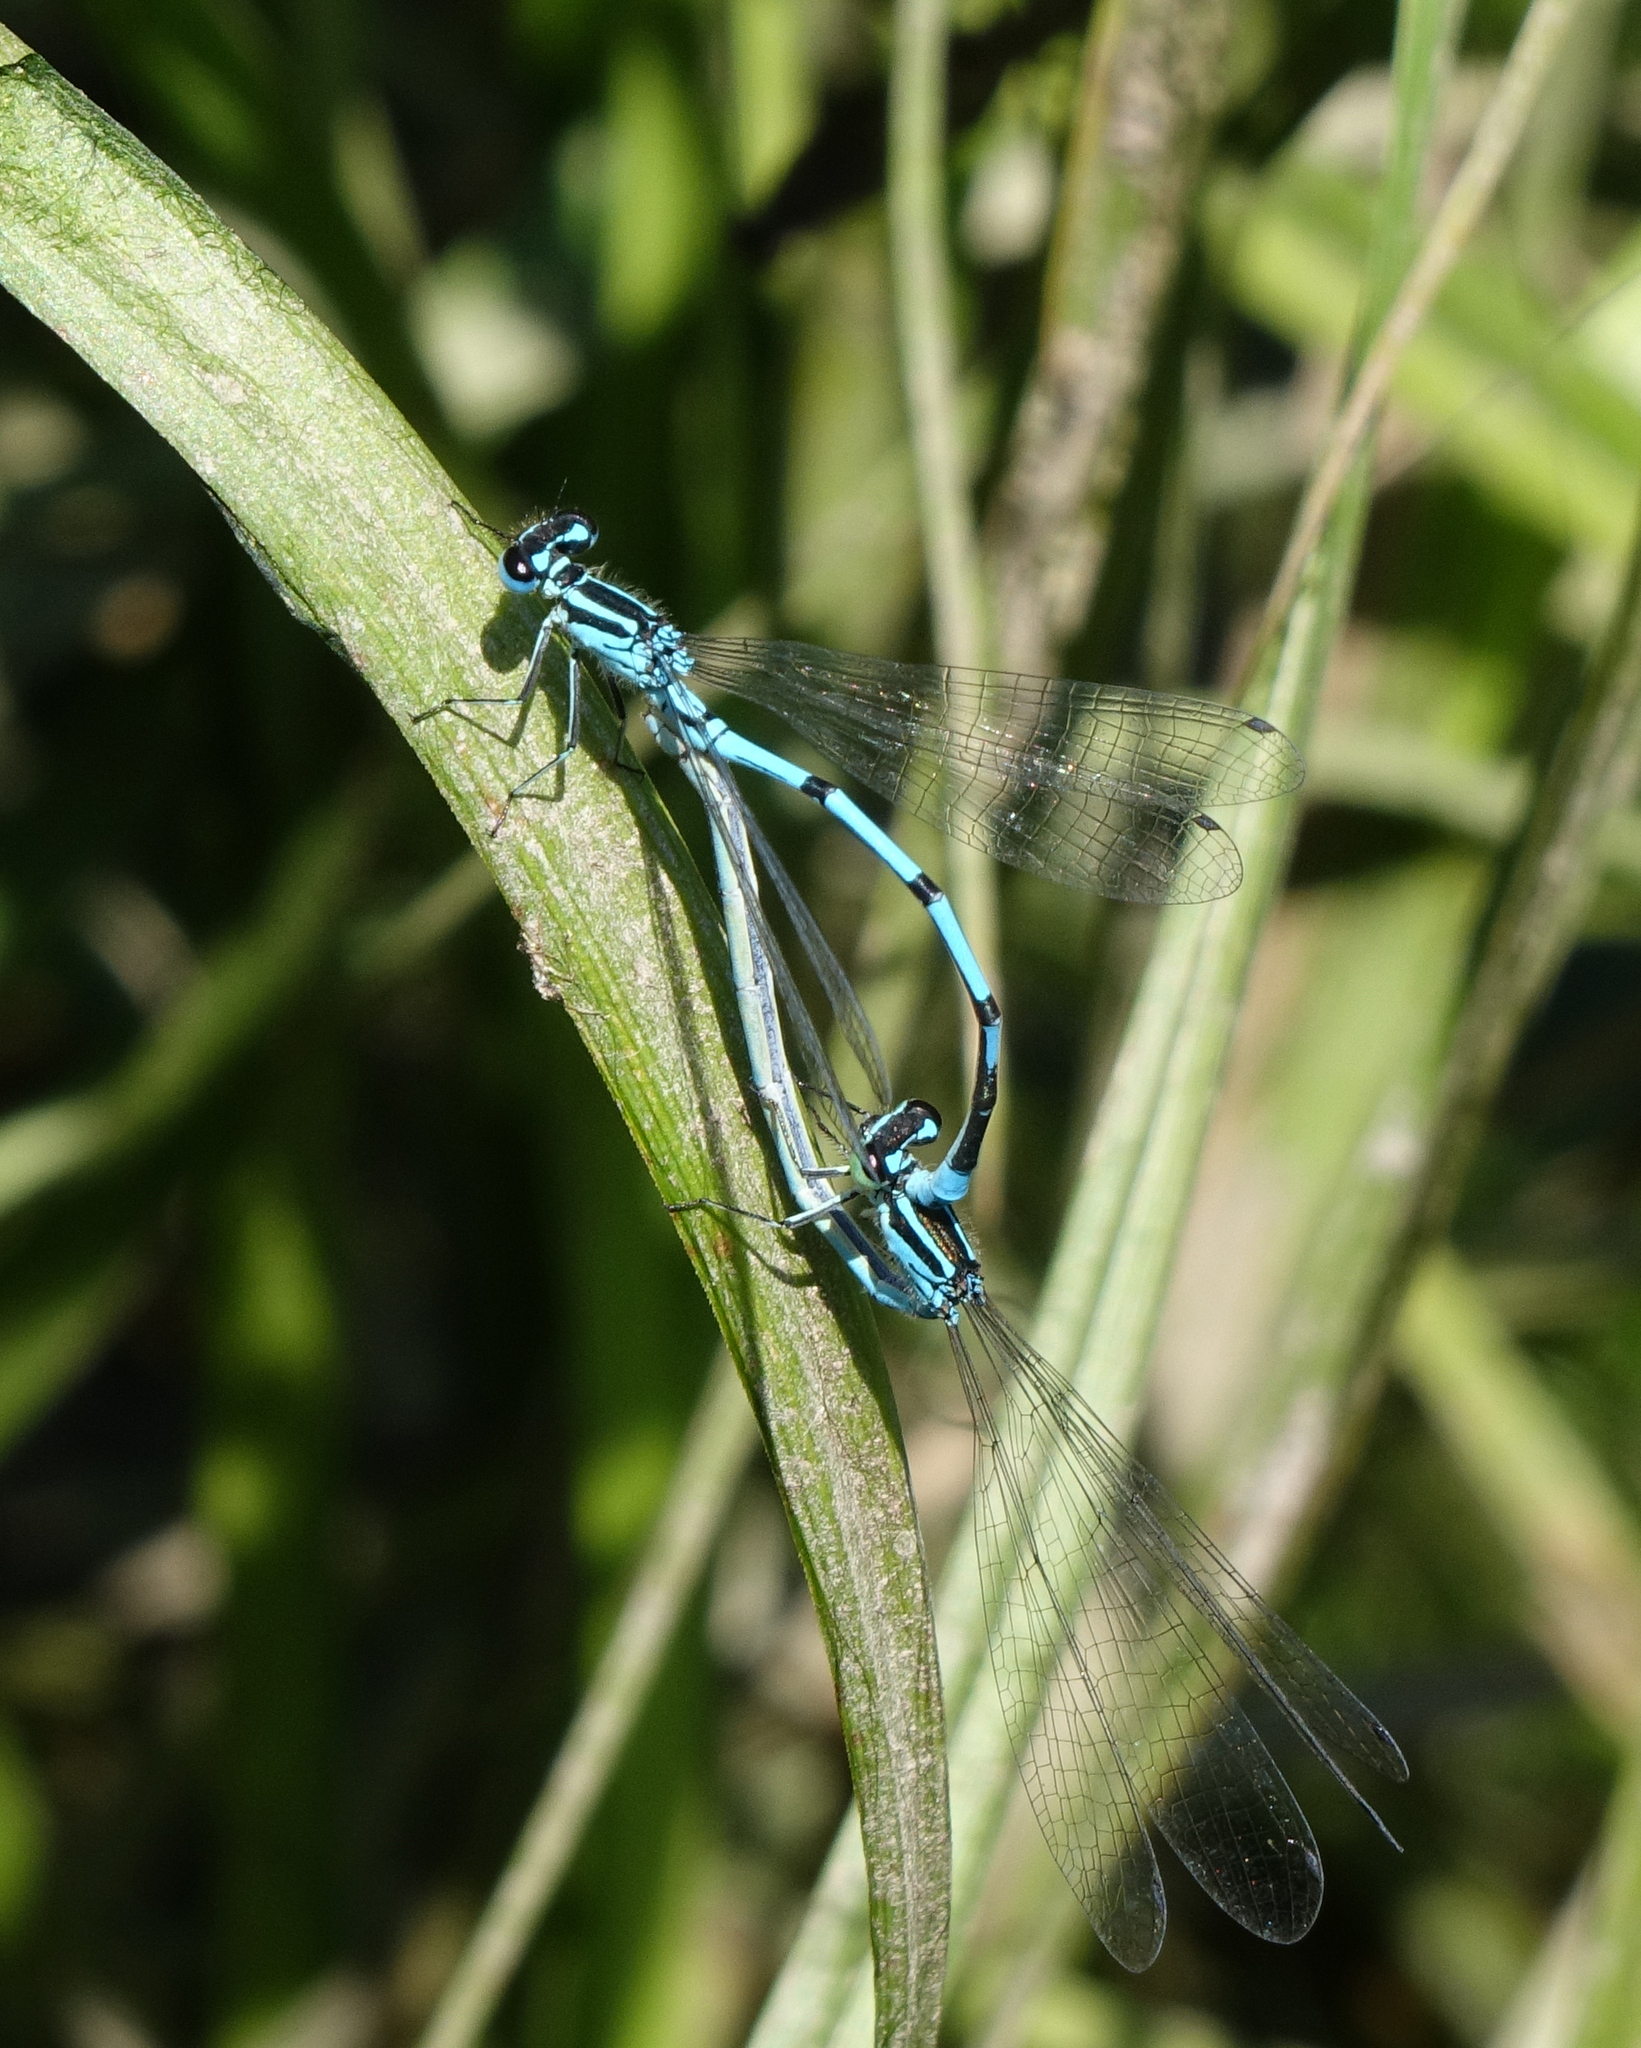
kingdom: Animalia
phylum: Arthropoda
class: Insecta
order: Odonata
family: Coenagrionidae
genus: Coenagrion
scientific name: Coenagrion puella
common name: Azure damselfly
